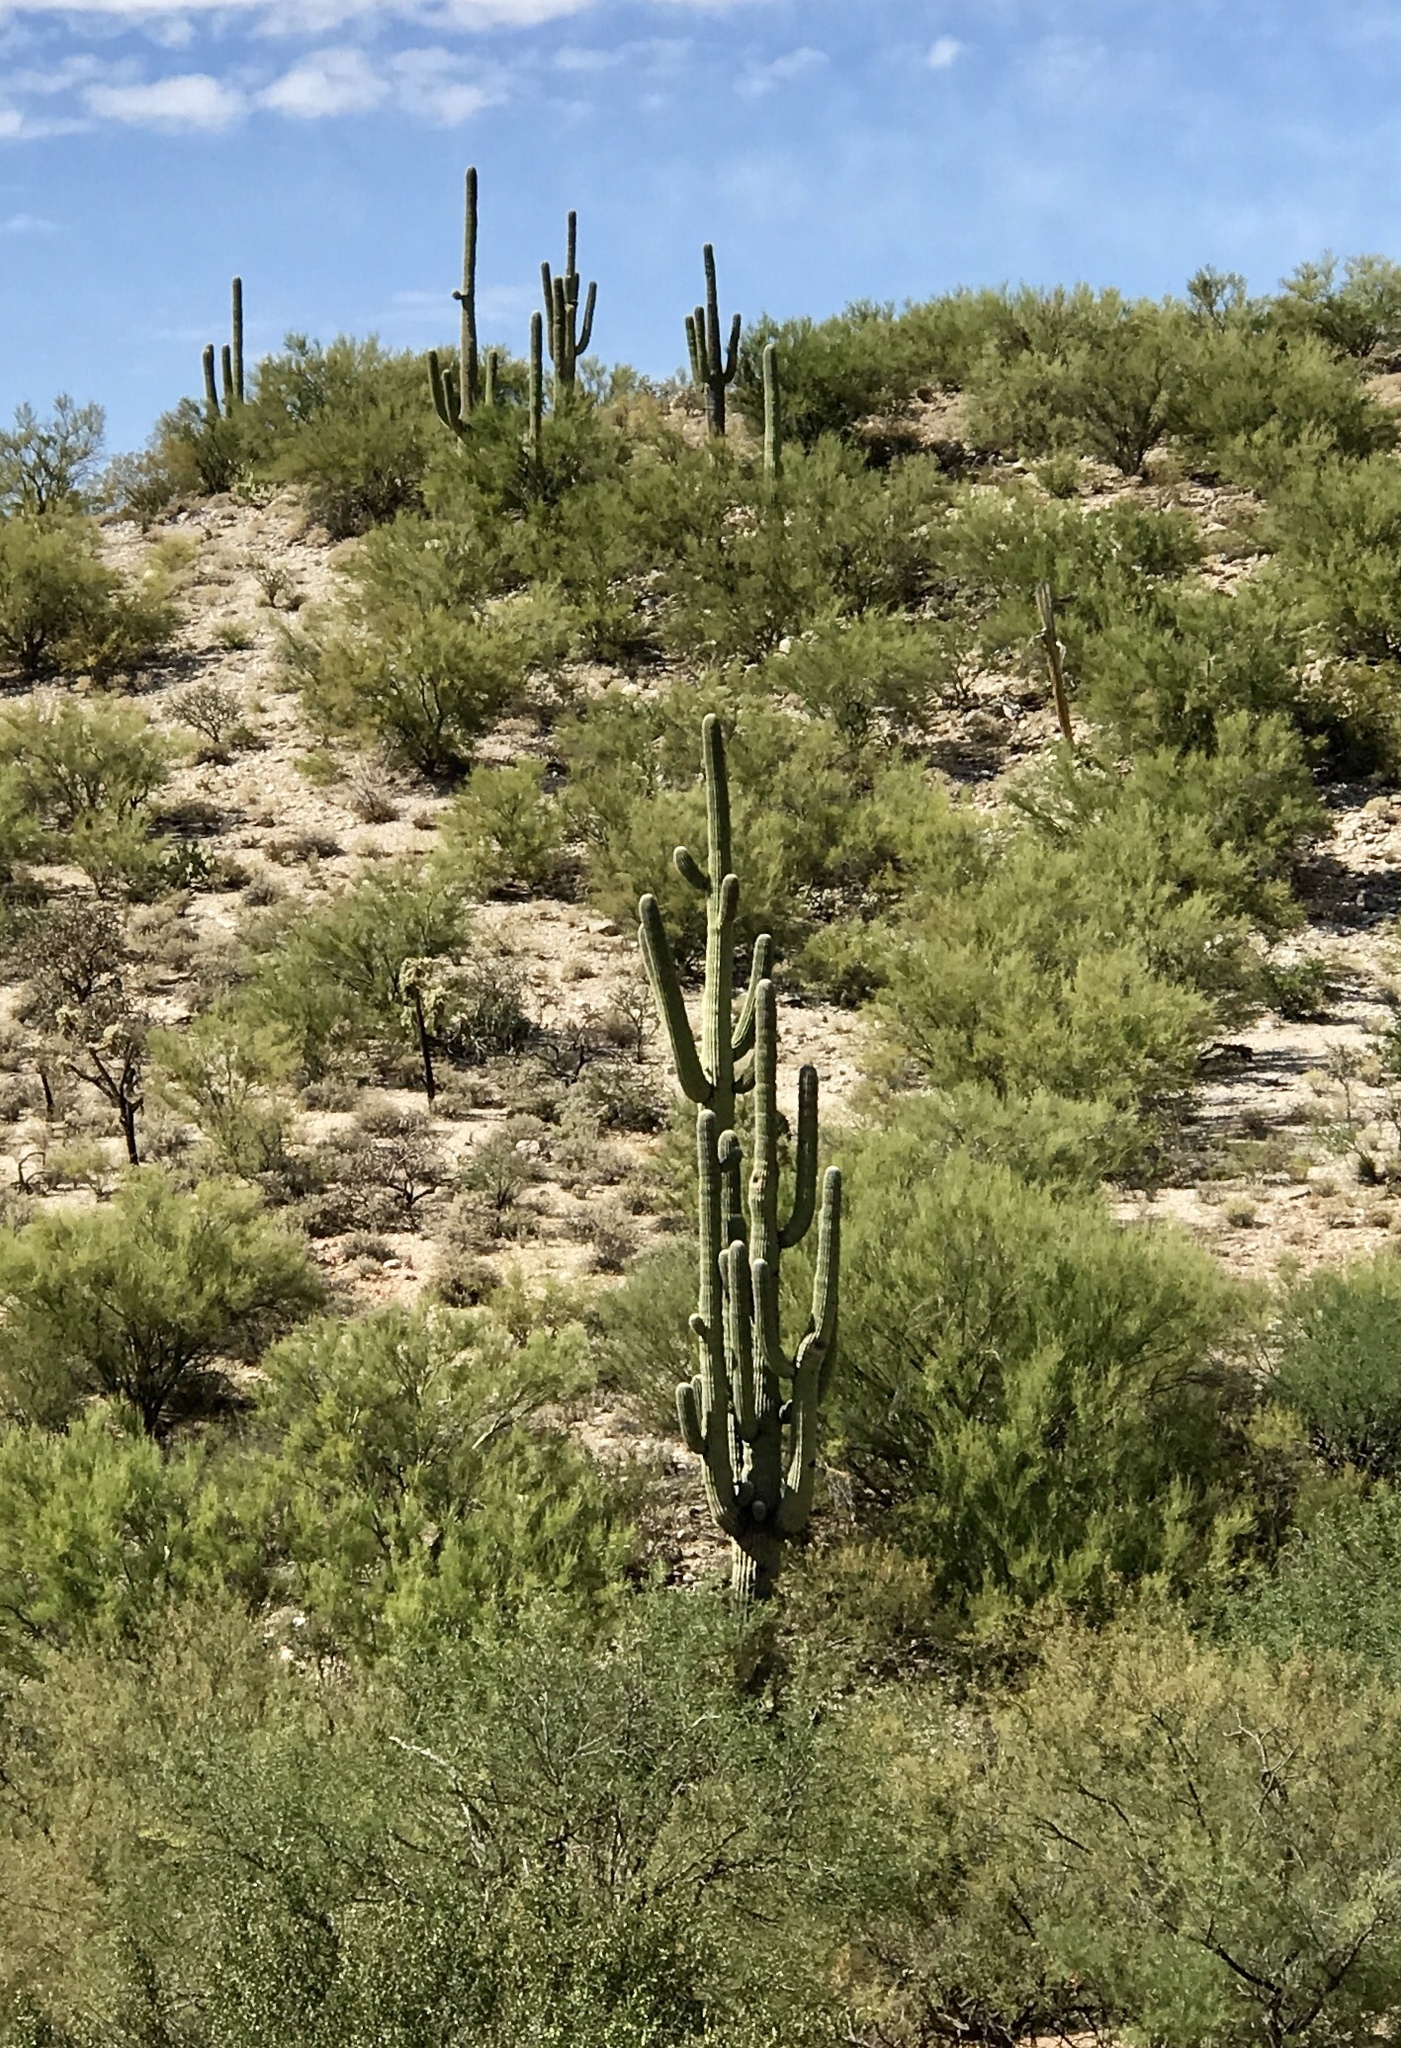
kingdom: Plantae
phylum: Tracheophyta
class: Magnoliopsida
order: Caryophyllales
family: Cactaceae
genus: Carnegiea
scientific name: Carnegiea gigantea
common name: Saguaro
